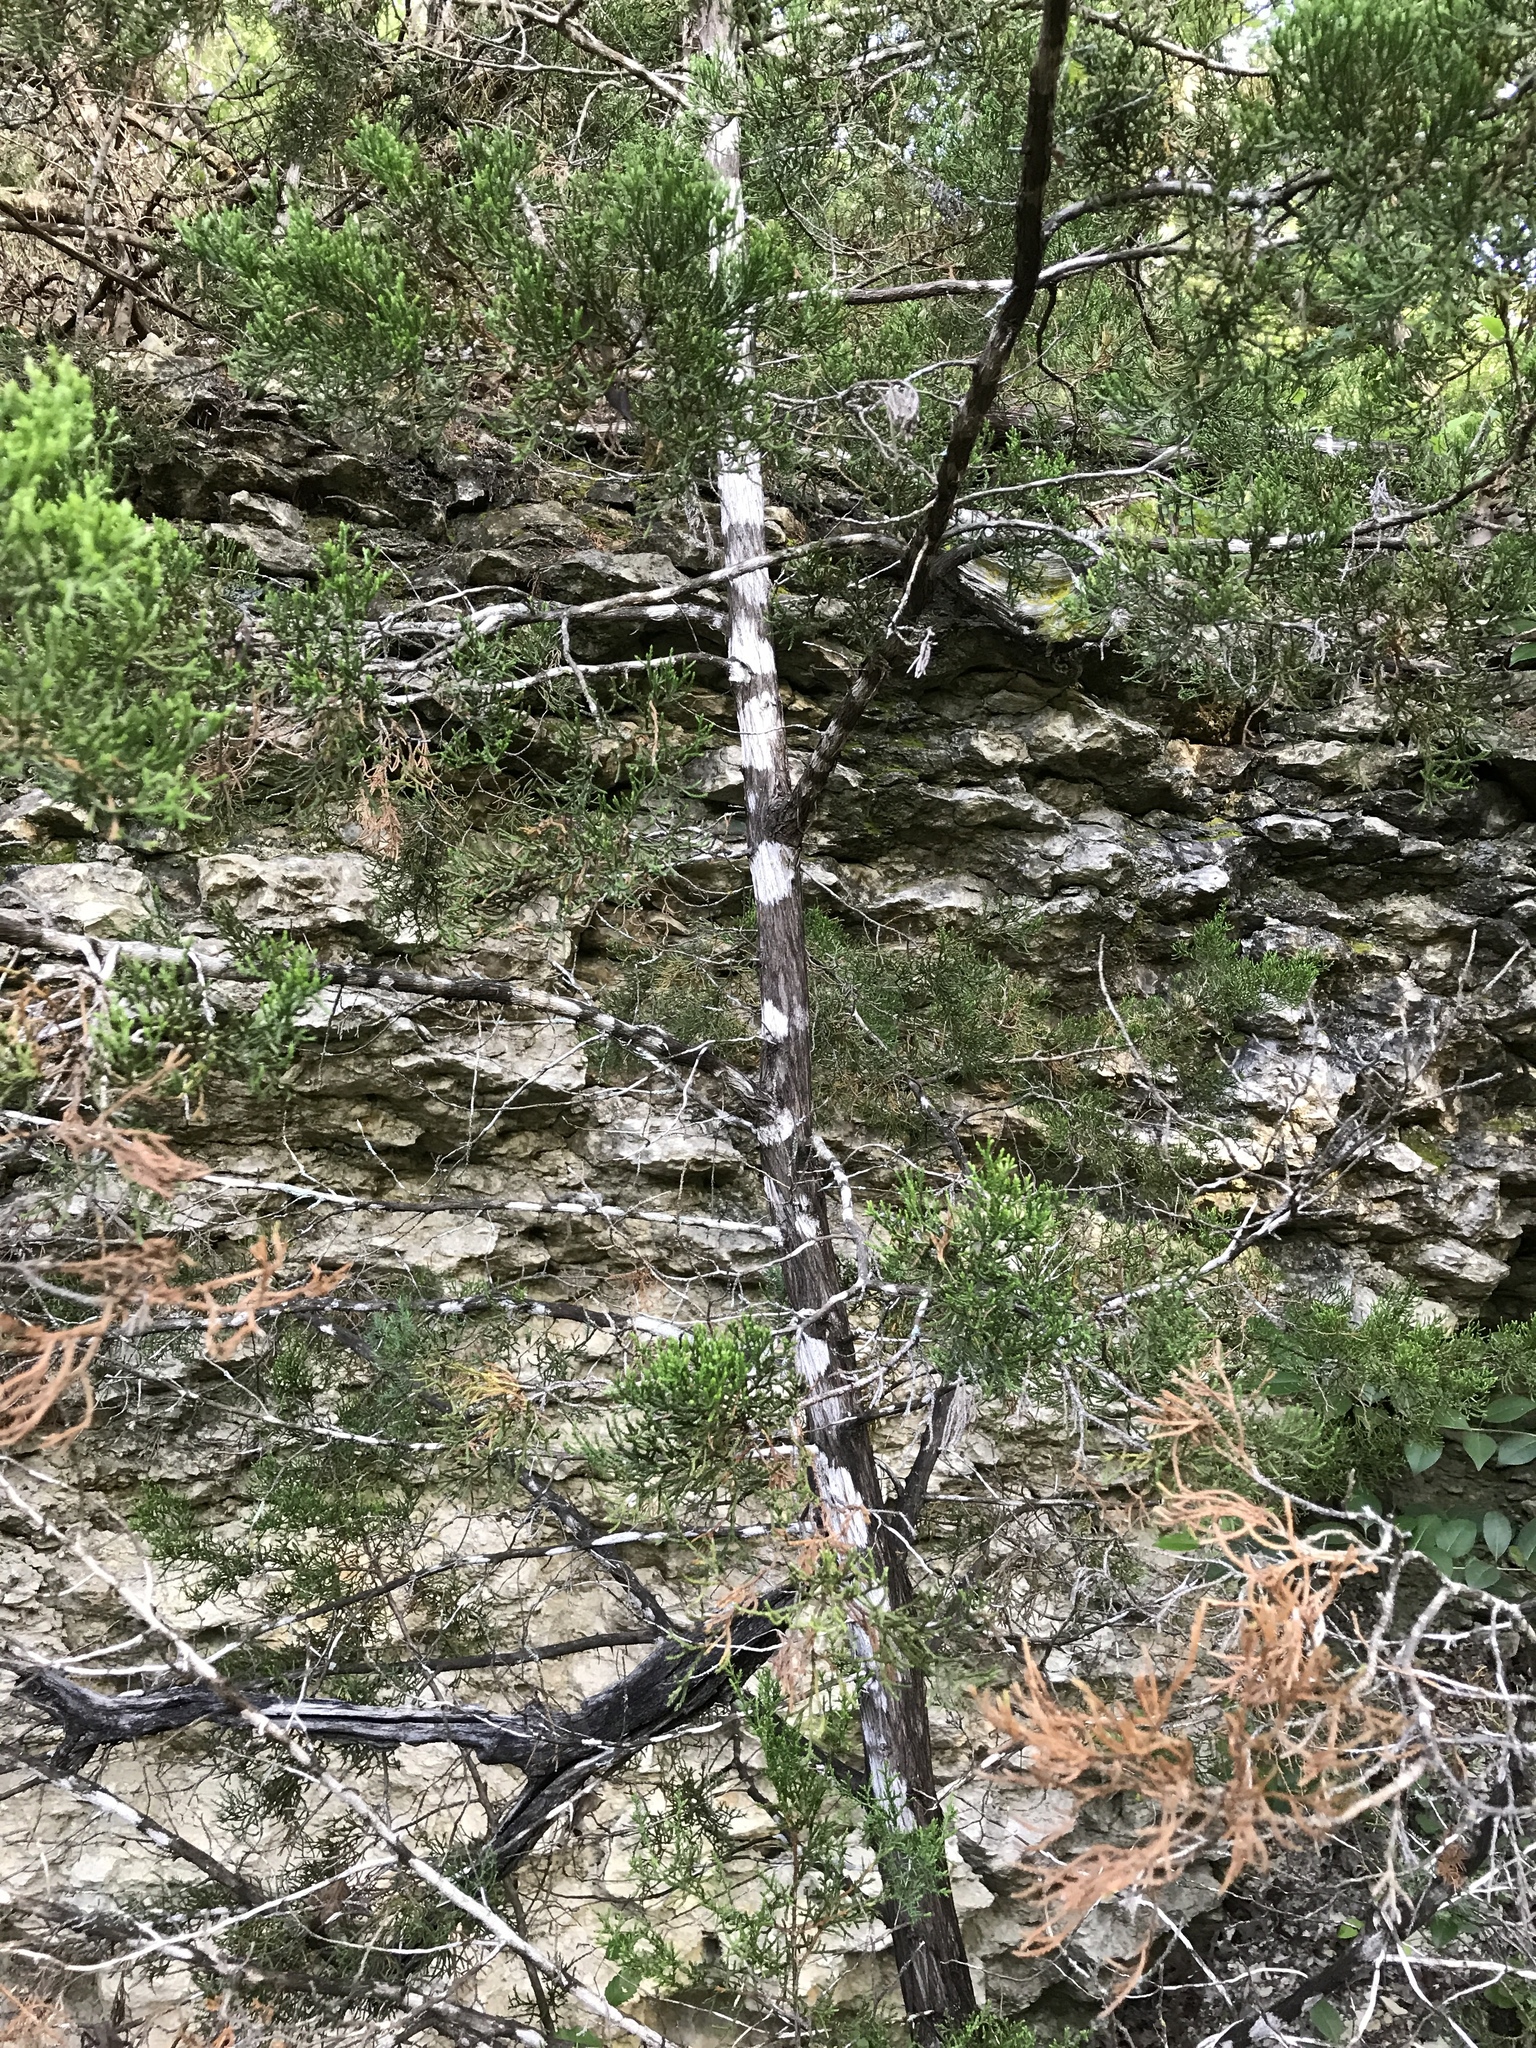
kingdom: Fungi
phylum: Ascomycota
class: Lecanoromycetes
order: Ostropales
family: Stictidaceae
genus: Robergea
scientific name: Robergea
